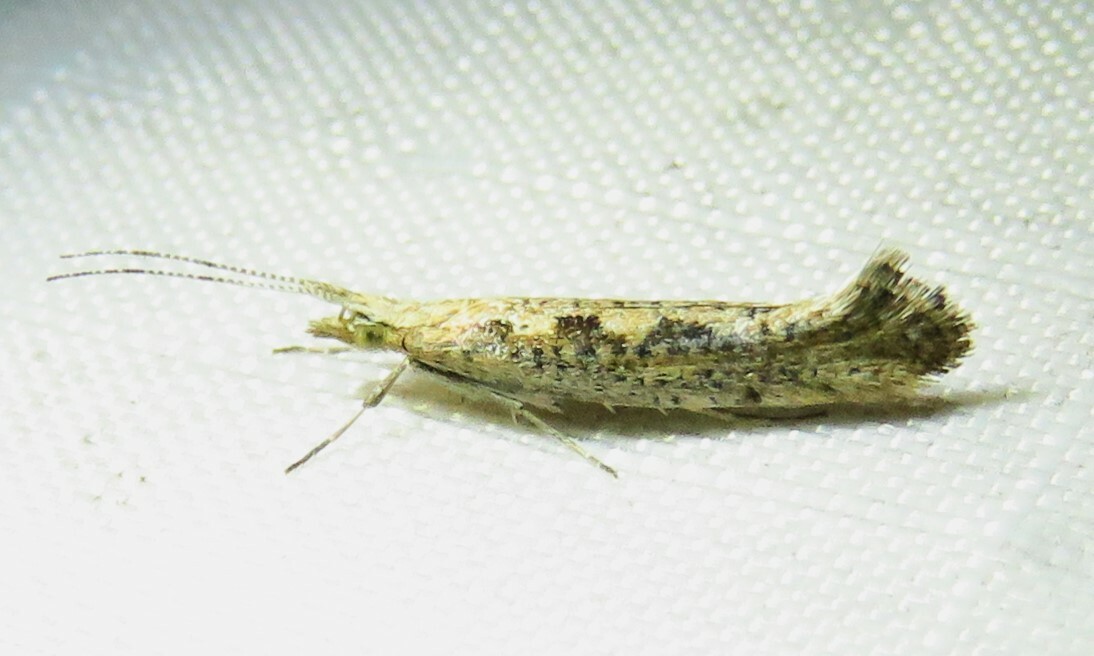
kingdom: Animalia
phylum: Arthropoda
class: Insecta
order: Lepidoptera
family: Plutellidae
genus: Plutella
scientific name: Plutella xylostella
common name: Diamond-back moth
